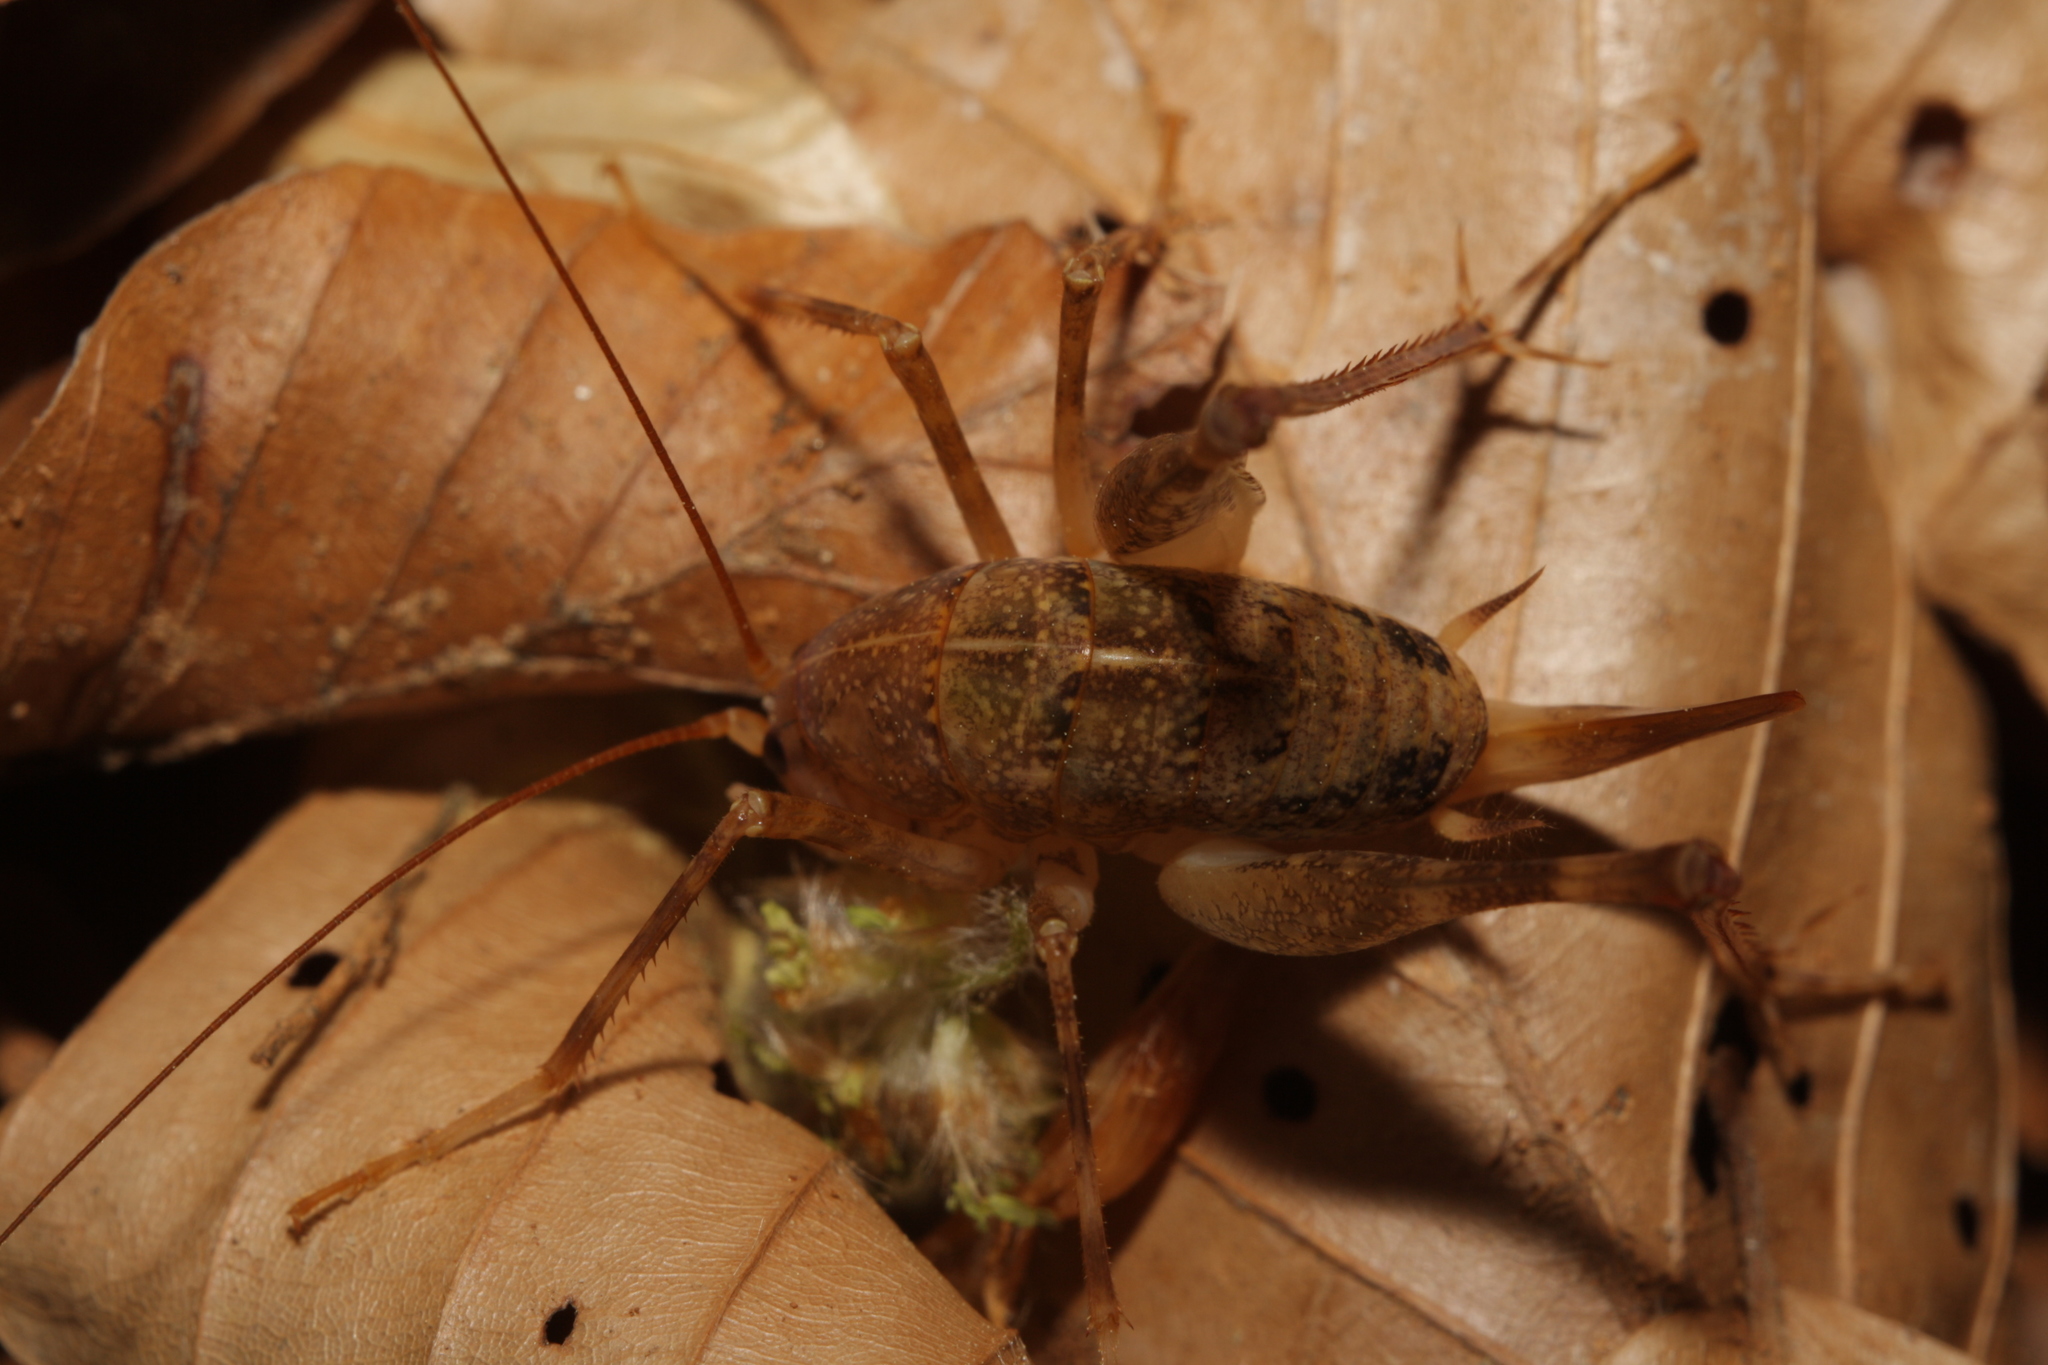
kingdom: Animalia
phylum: Arthropoda
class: Insecta
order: Orthoptera
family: Rhaphidophoridae
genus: Troglophilus
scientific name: Troglophilus cavicola
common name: Common cave-cricket
